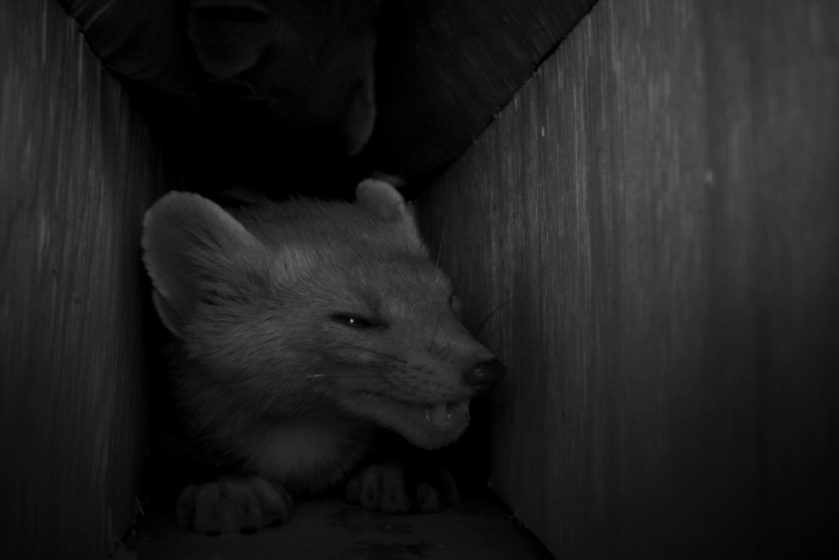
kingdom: Animalia
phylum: Chordata
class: Mammalia
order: Carnivora
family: Mustelidae
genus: Martes
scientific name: Martes americana
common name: American marten
